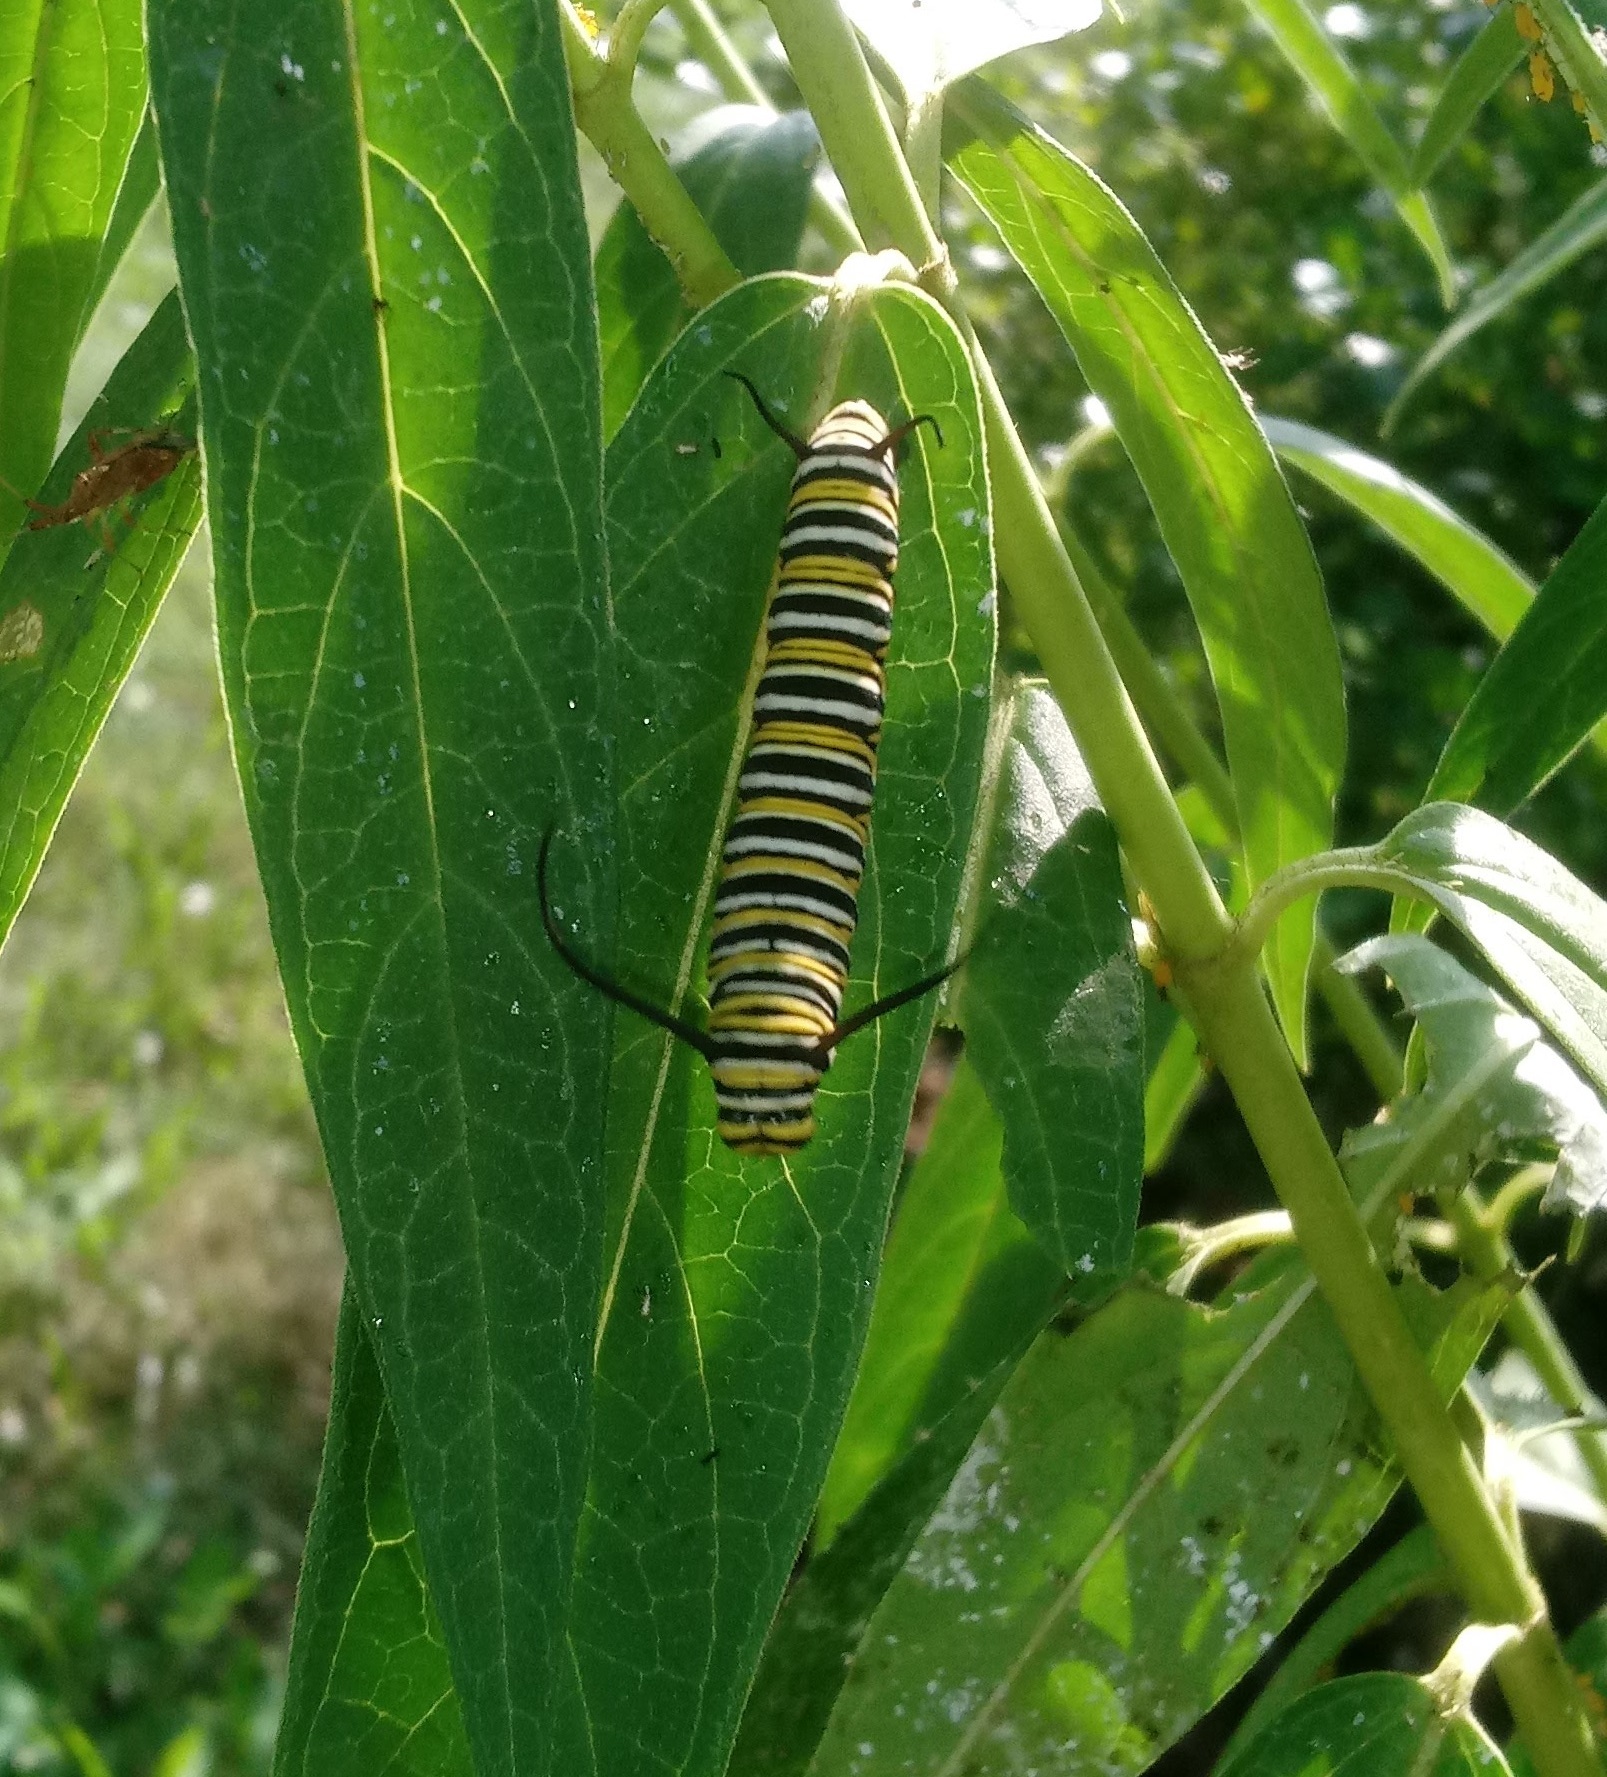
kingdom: Animalia
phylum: Arthropoda
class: Insecta
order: Lepidoptera
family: Nymphalidae
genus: Danaus
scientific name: Danaus plexippus
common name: Monarch
